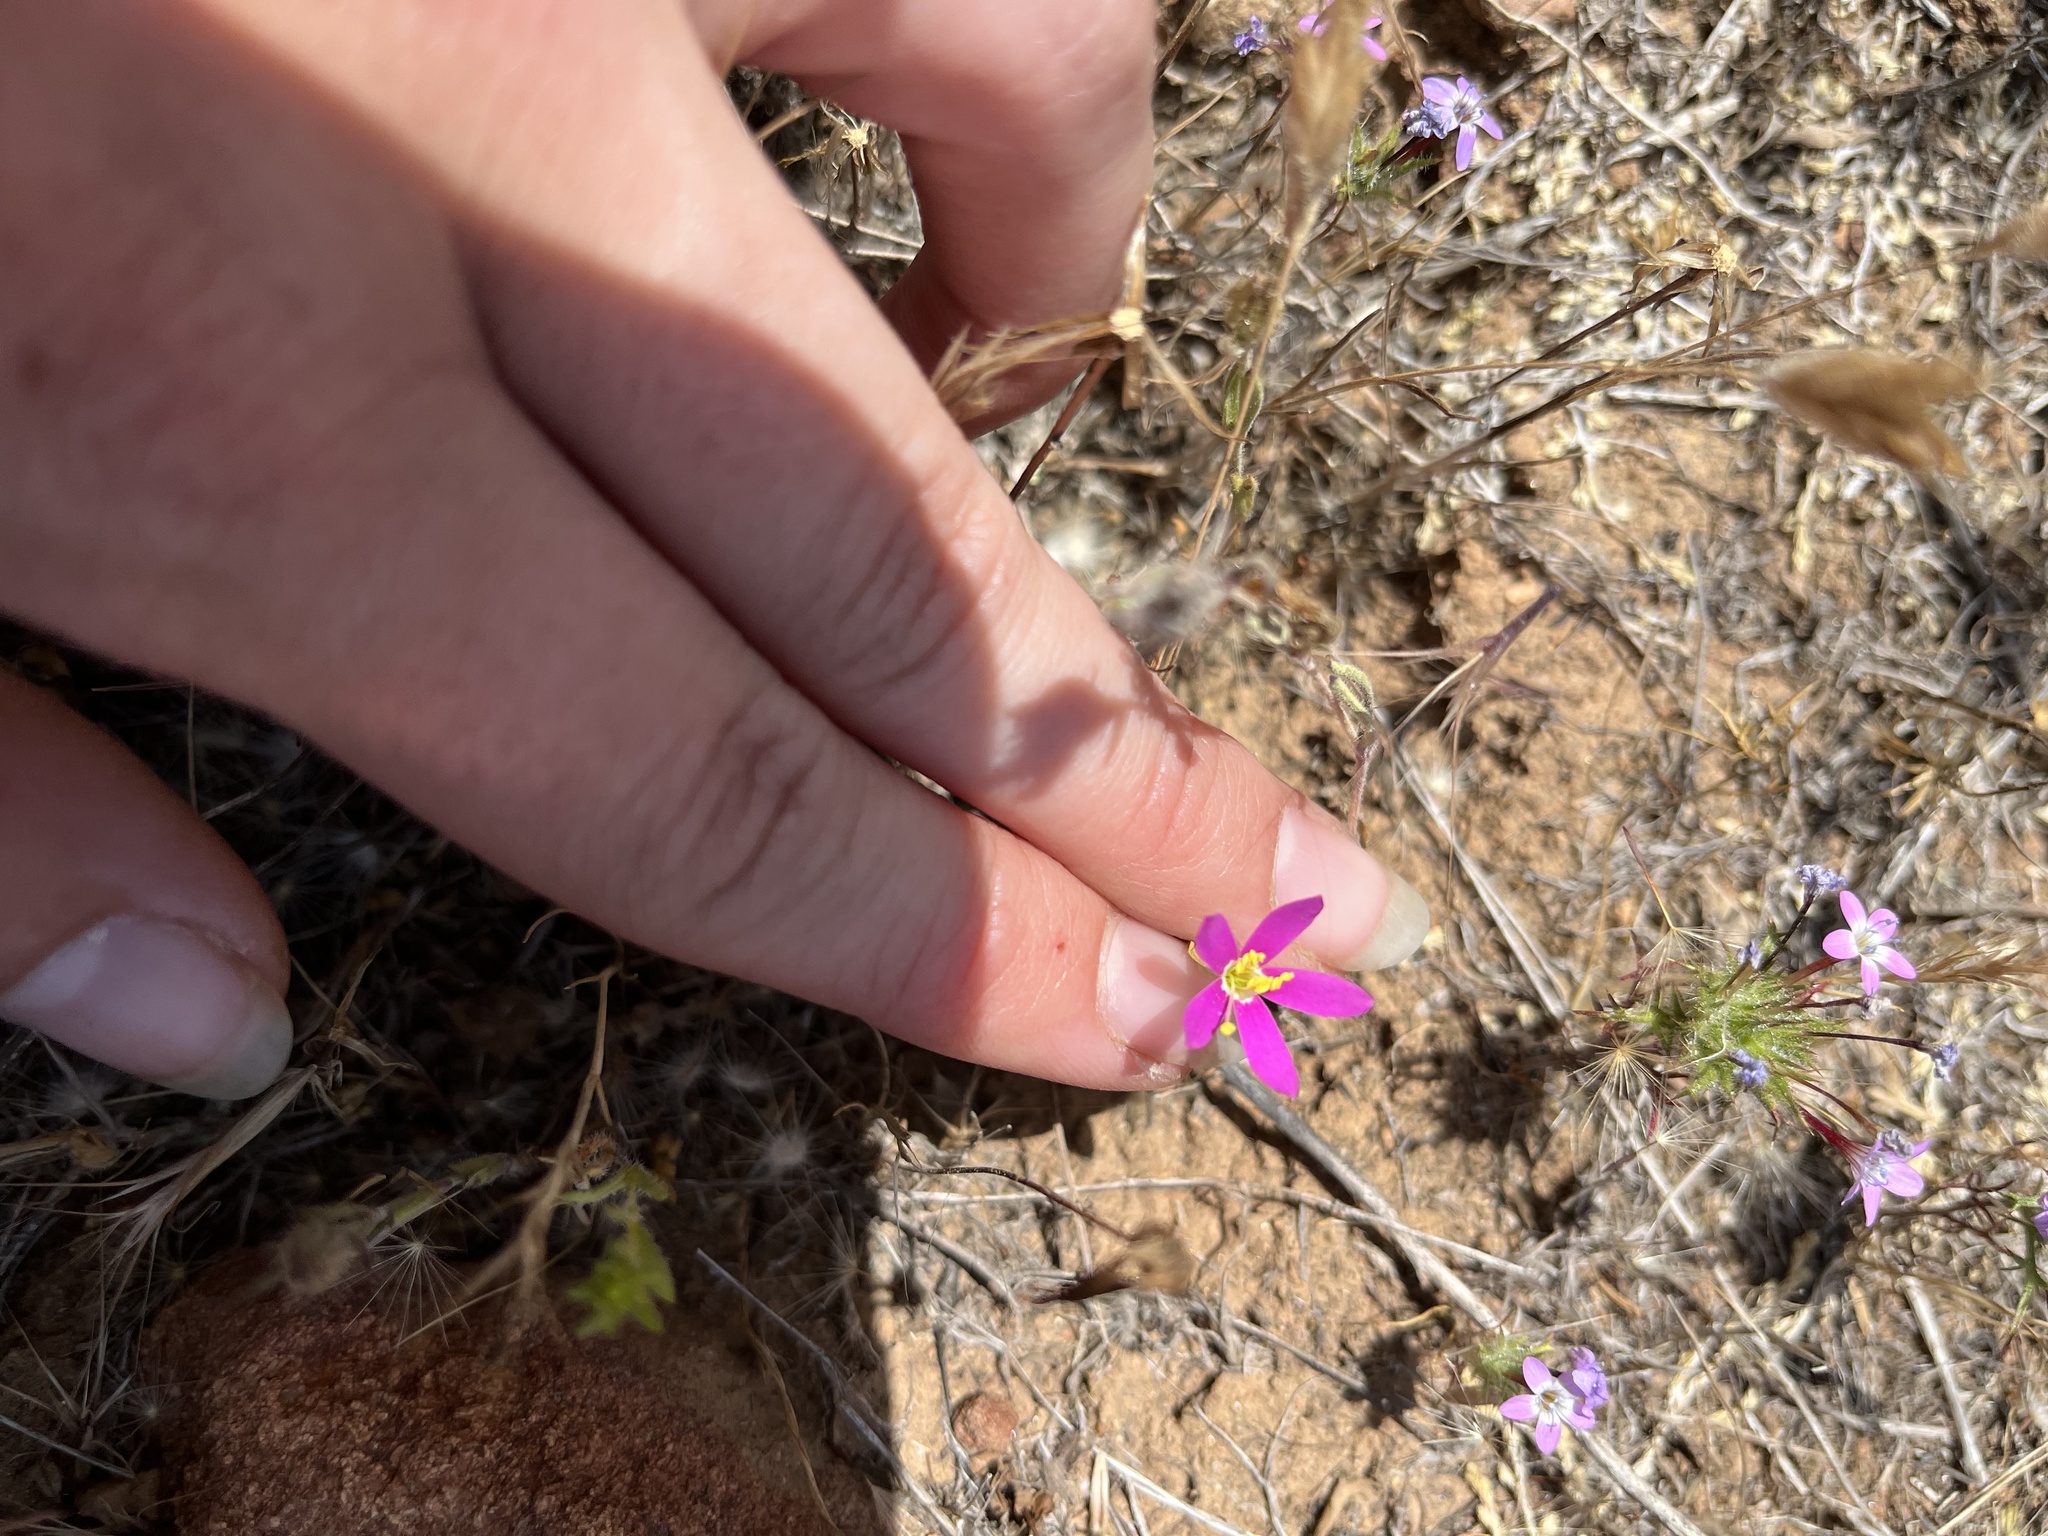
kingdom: Plantae
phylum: Tracheophyta
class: Magnoliopsida
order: Gentianales
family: Gentianaceae
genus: Zeltnera
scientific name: Zeltnera venusta
